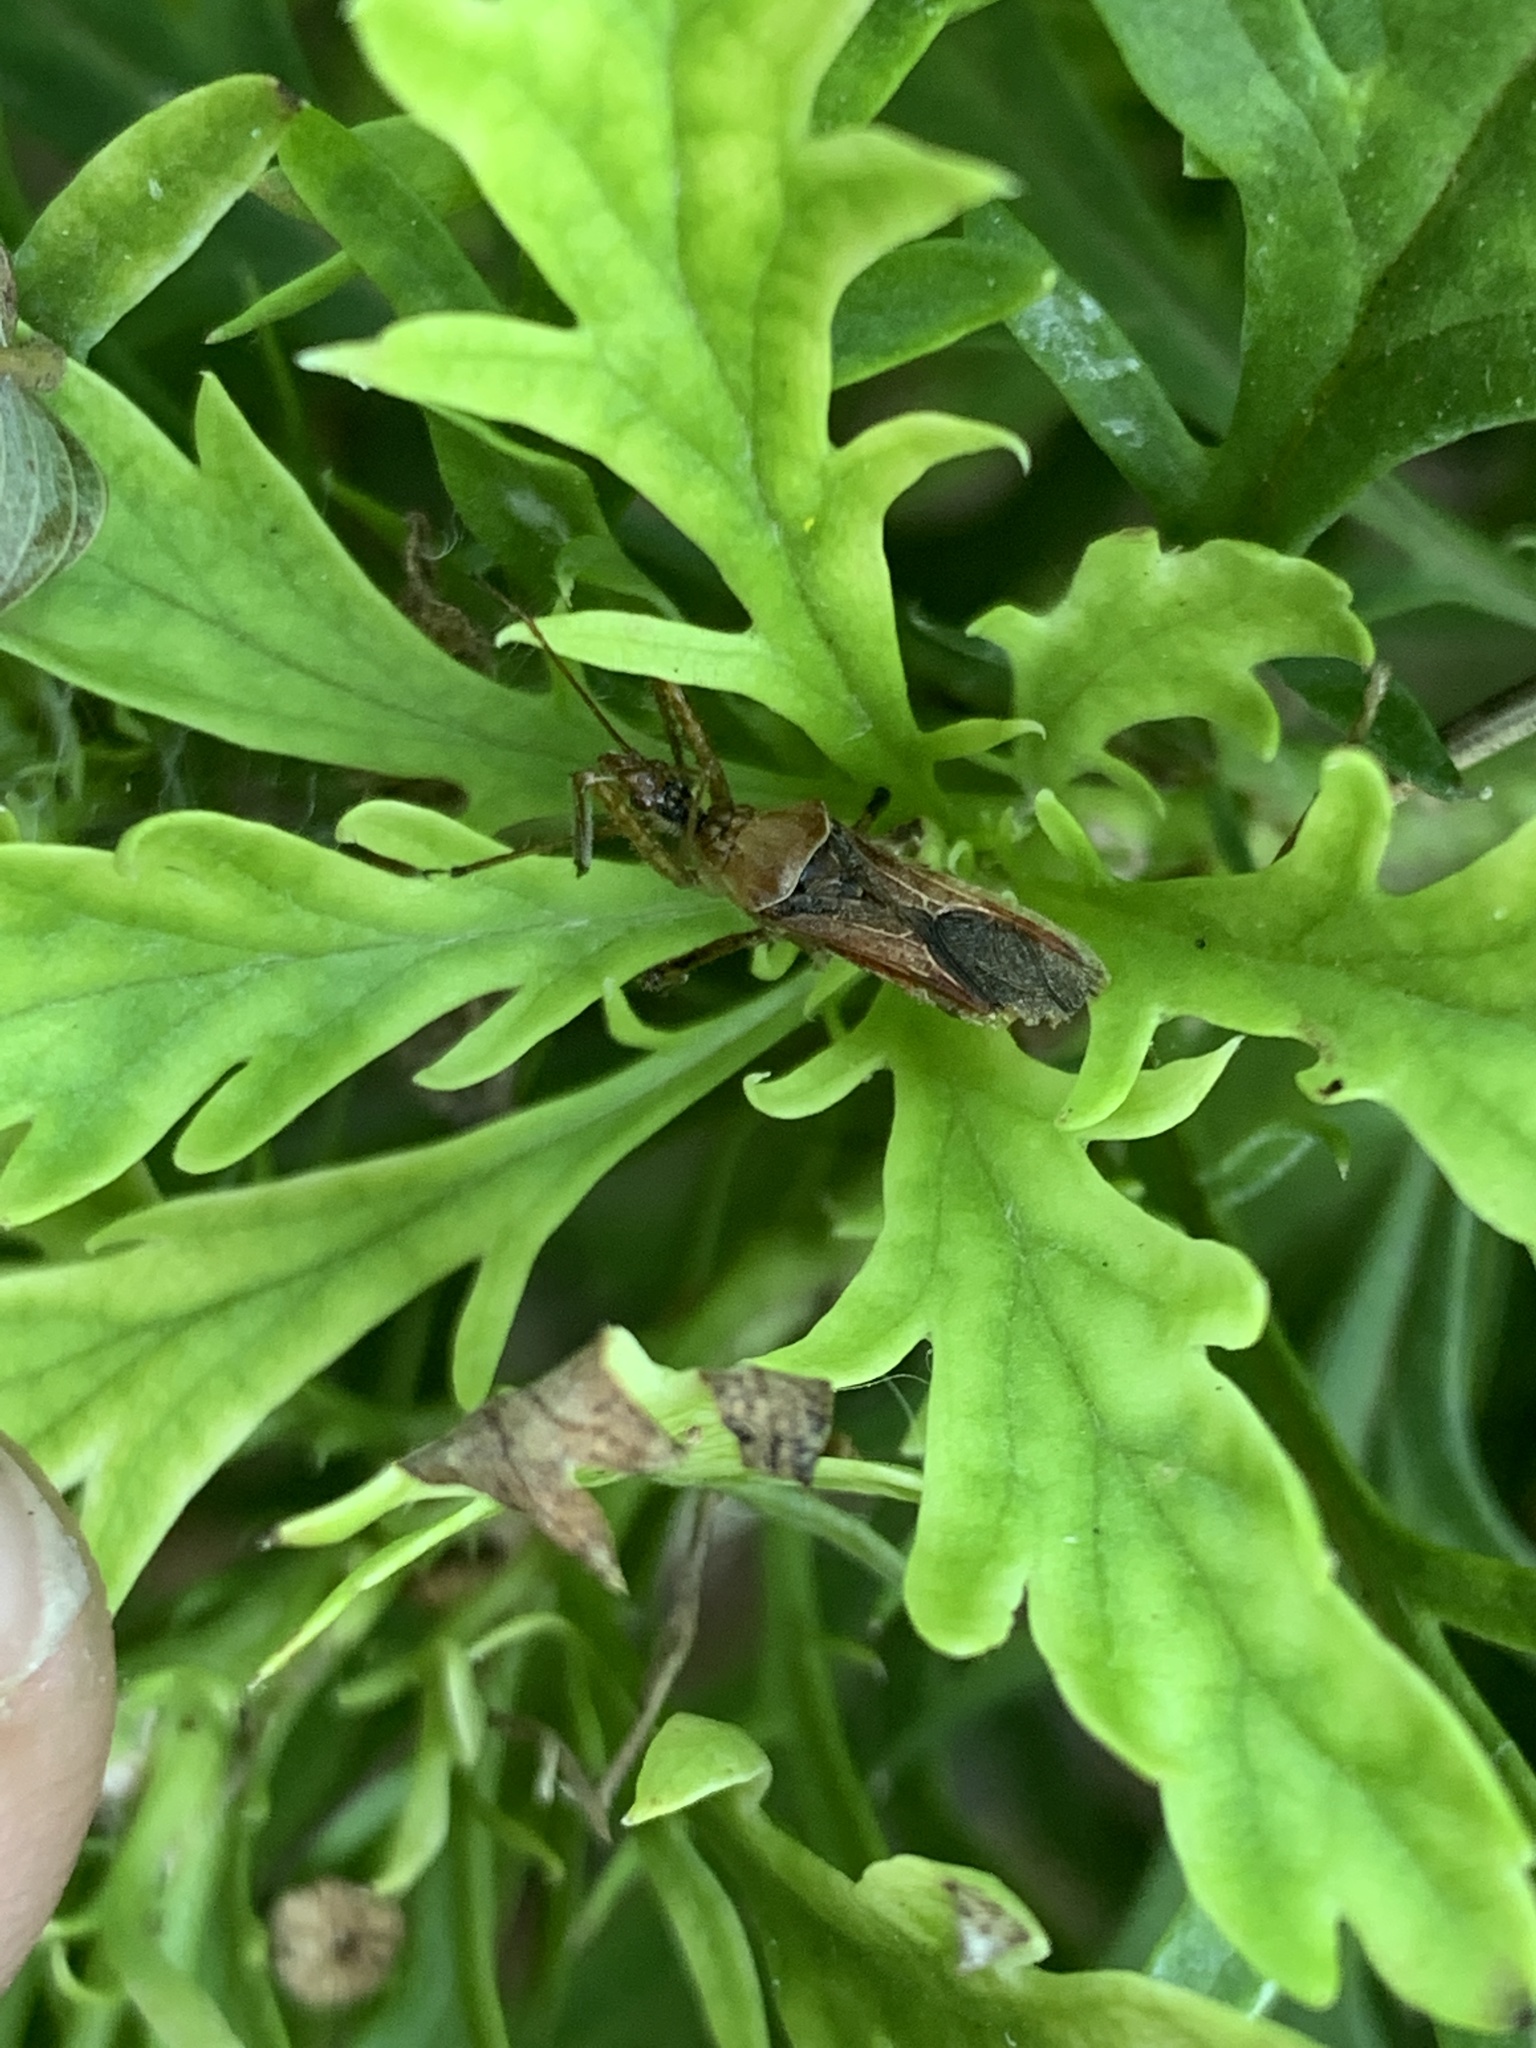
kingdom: Animalia
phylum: Arthropoda
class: Insecta
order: Hemiptera
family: Reduviidae
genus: Zelus
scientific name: Zelus renardii
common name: Assassin bug
